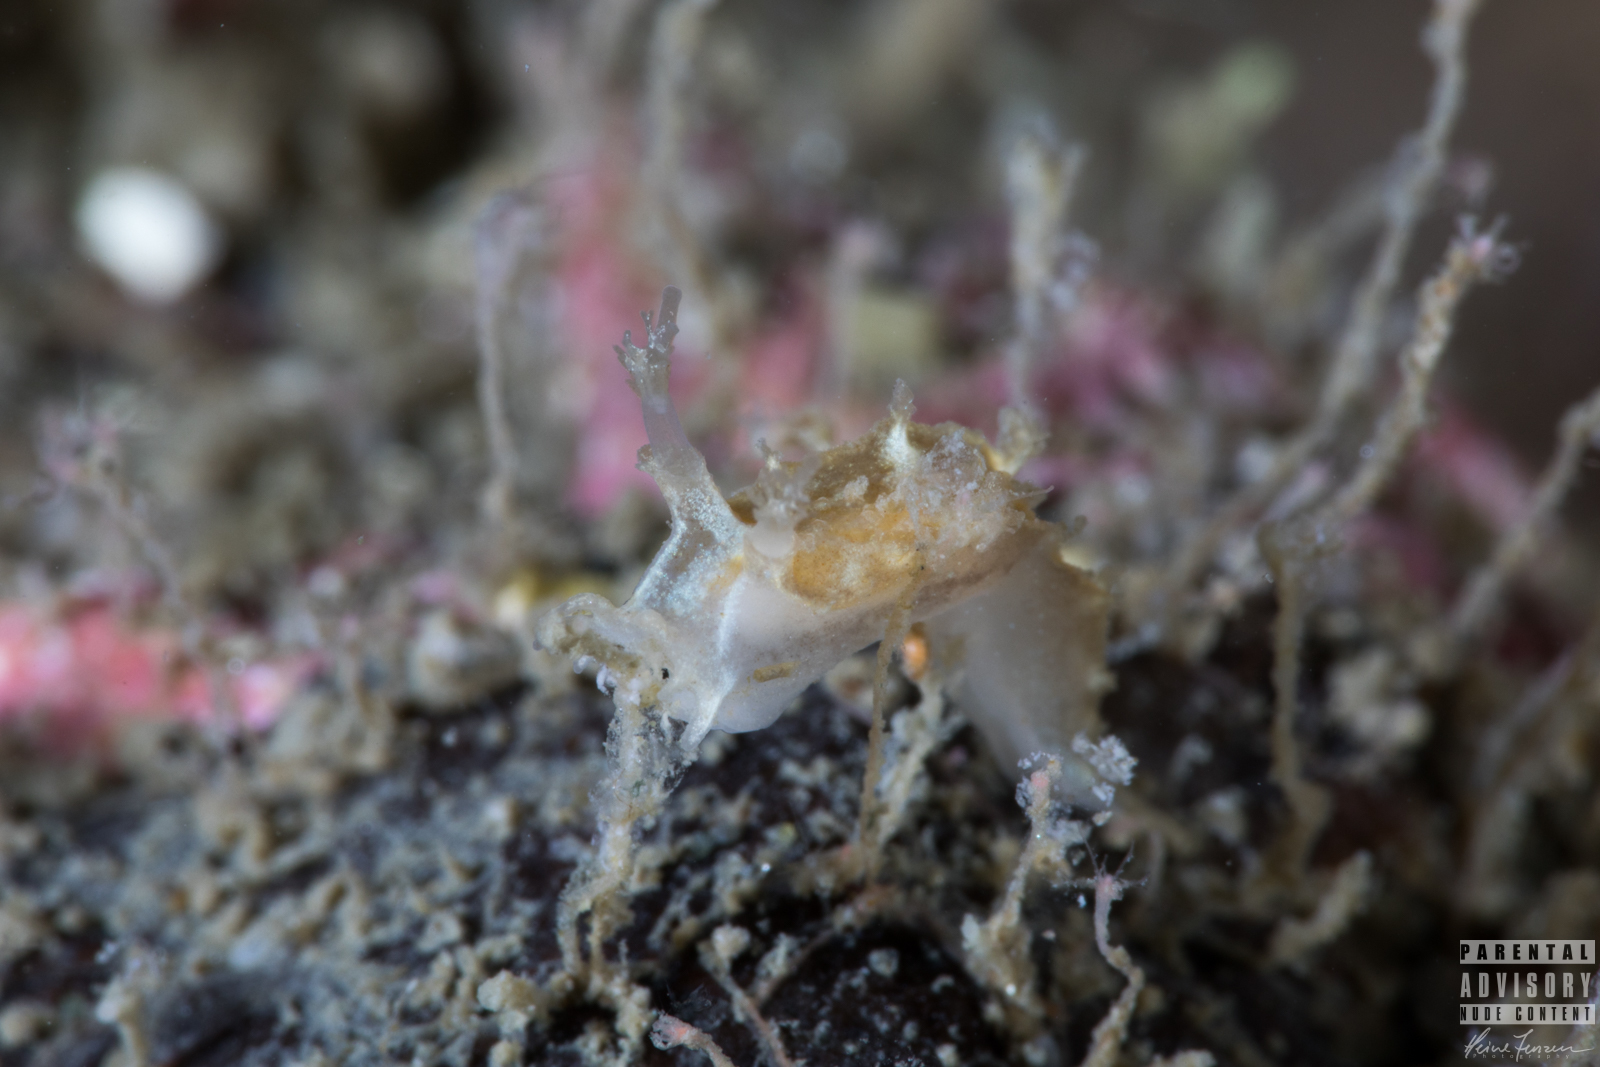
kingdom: Animalia
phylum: Mollusca
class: Gastropoda
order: Nudibranchia
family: Tritoniidae
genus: Duvaucelia
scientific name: Duvaucelia plebeia
